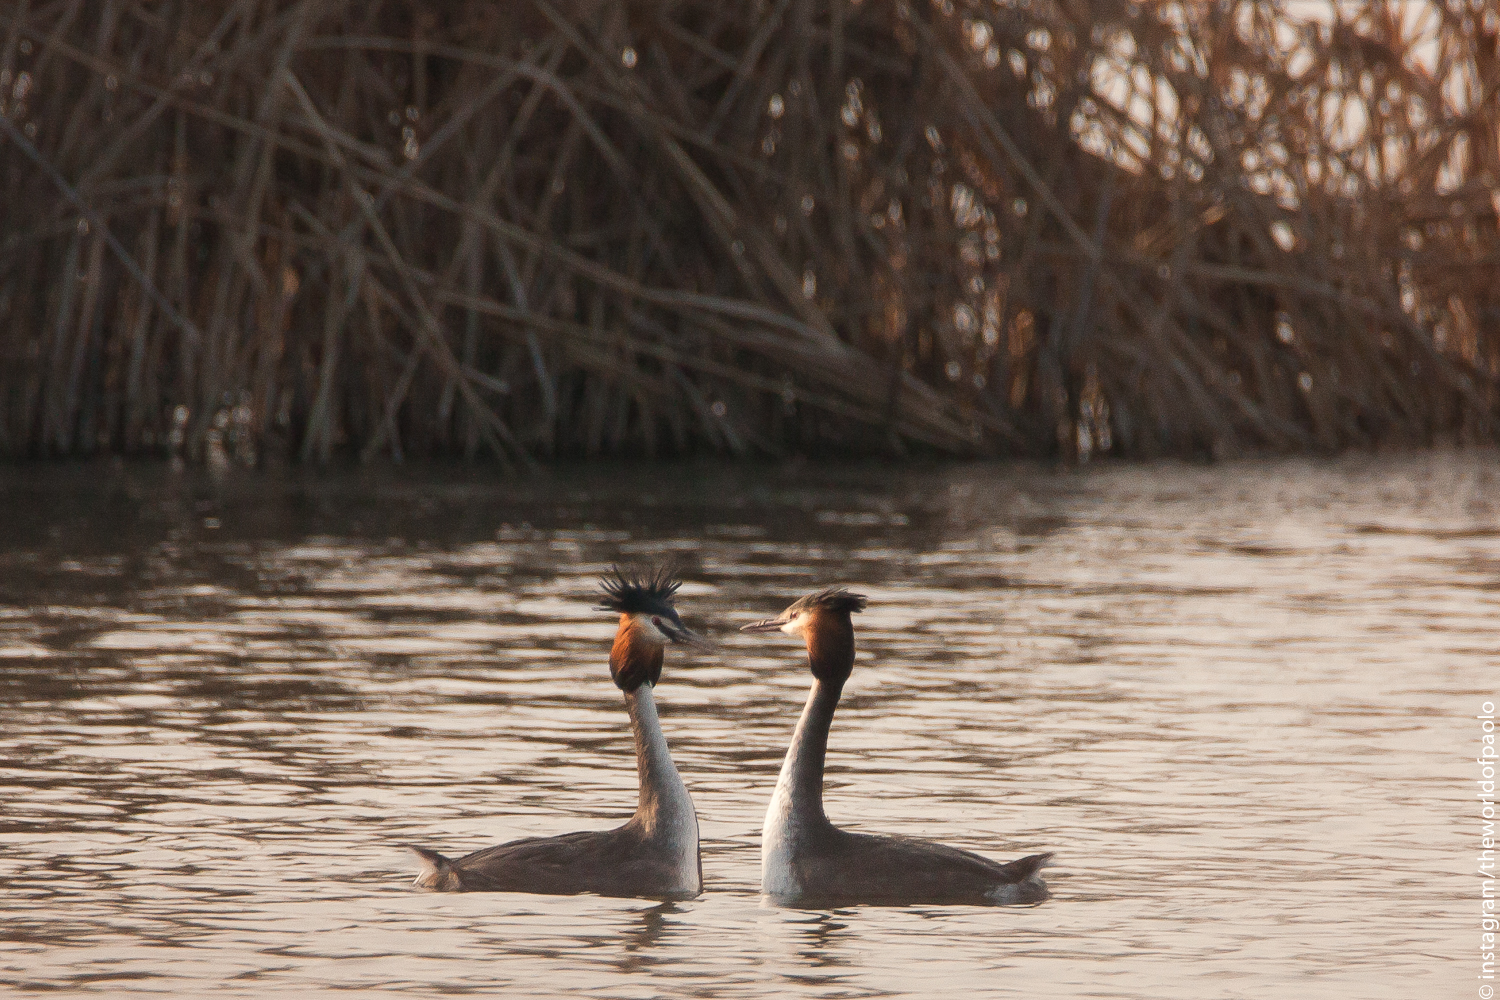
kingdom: Animalia
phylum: Chordata
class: Aves
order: Podicipediformes
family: Podicipedidae
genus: Podiceps
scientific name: Podiceps cristatus
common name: Great crested grebe
